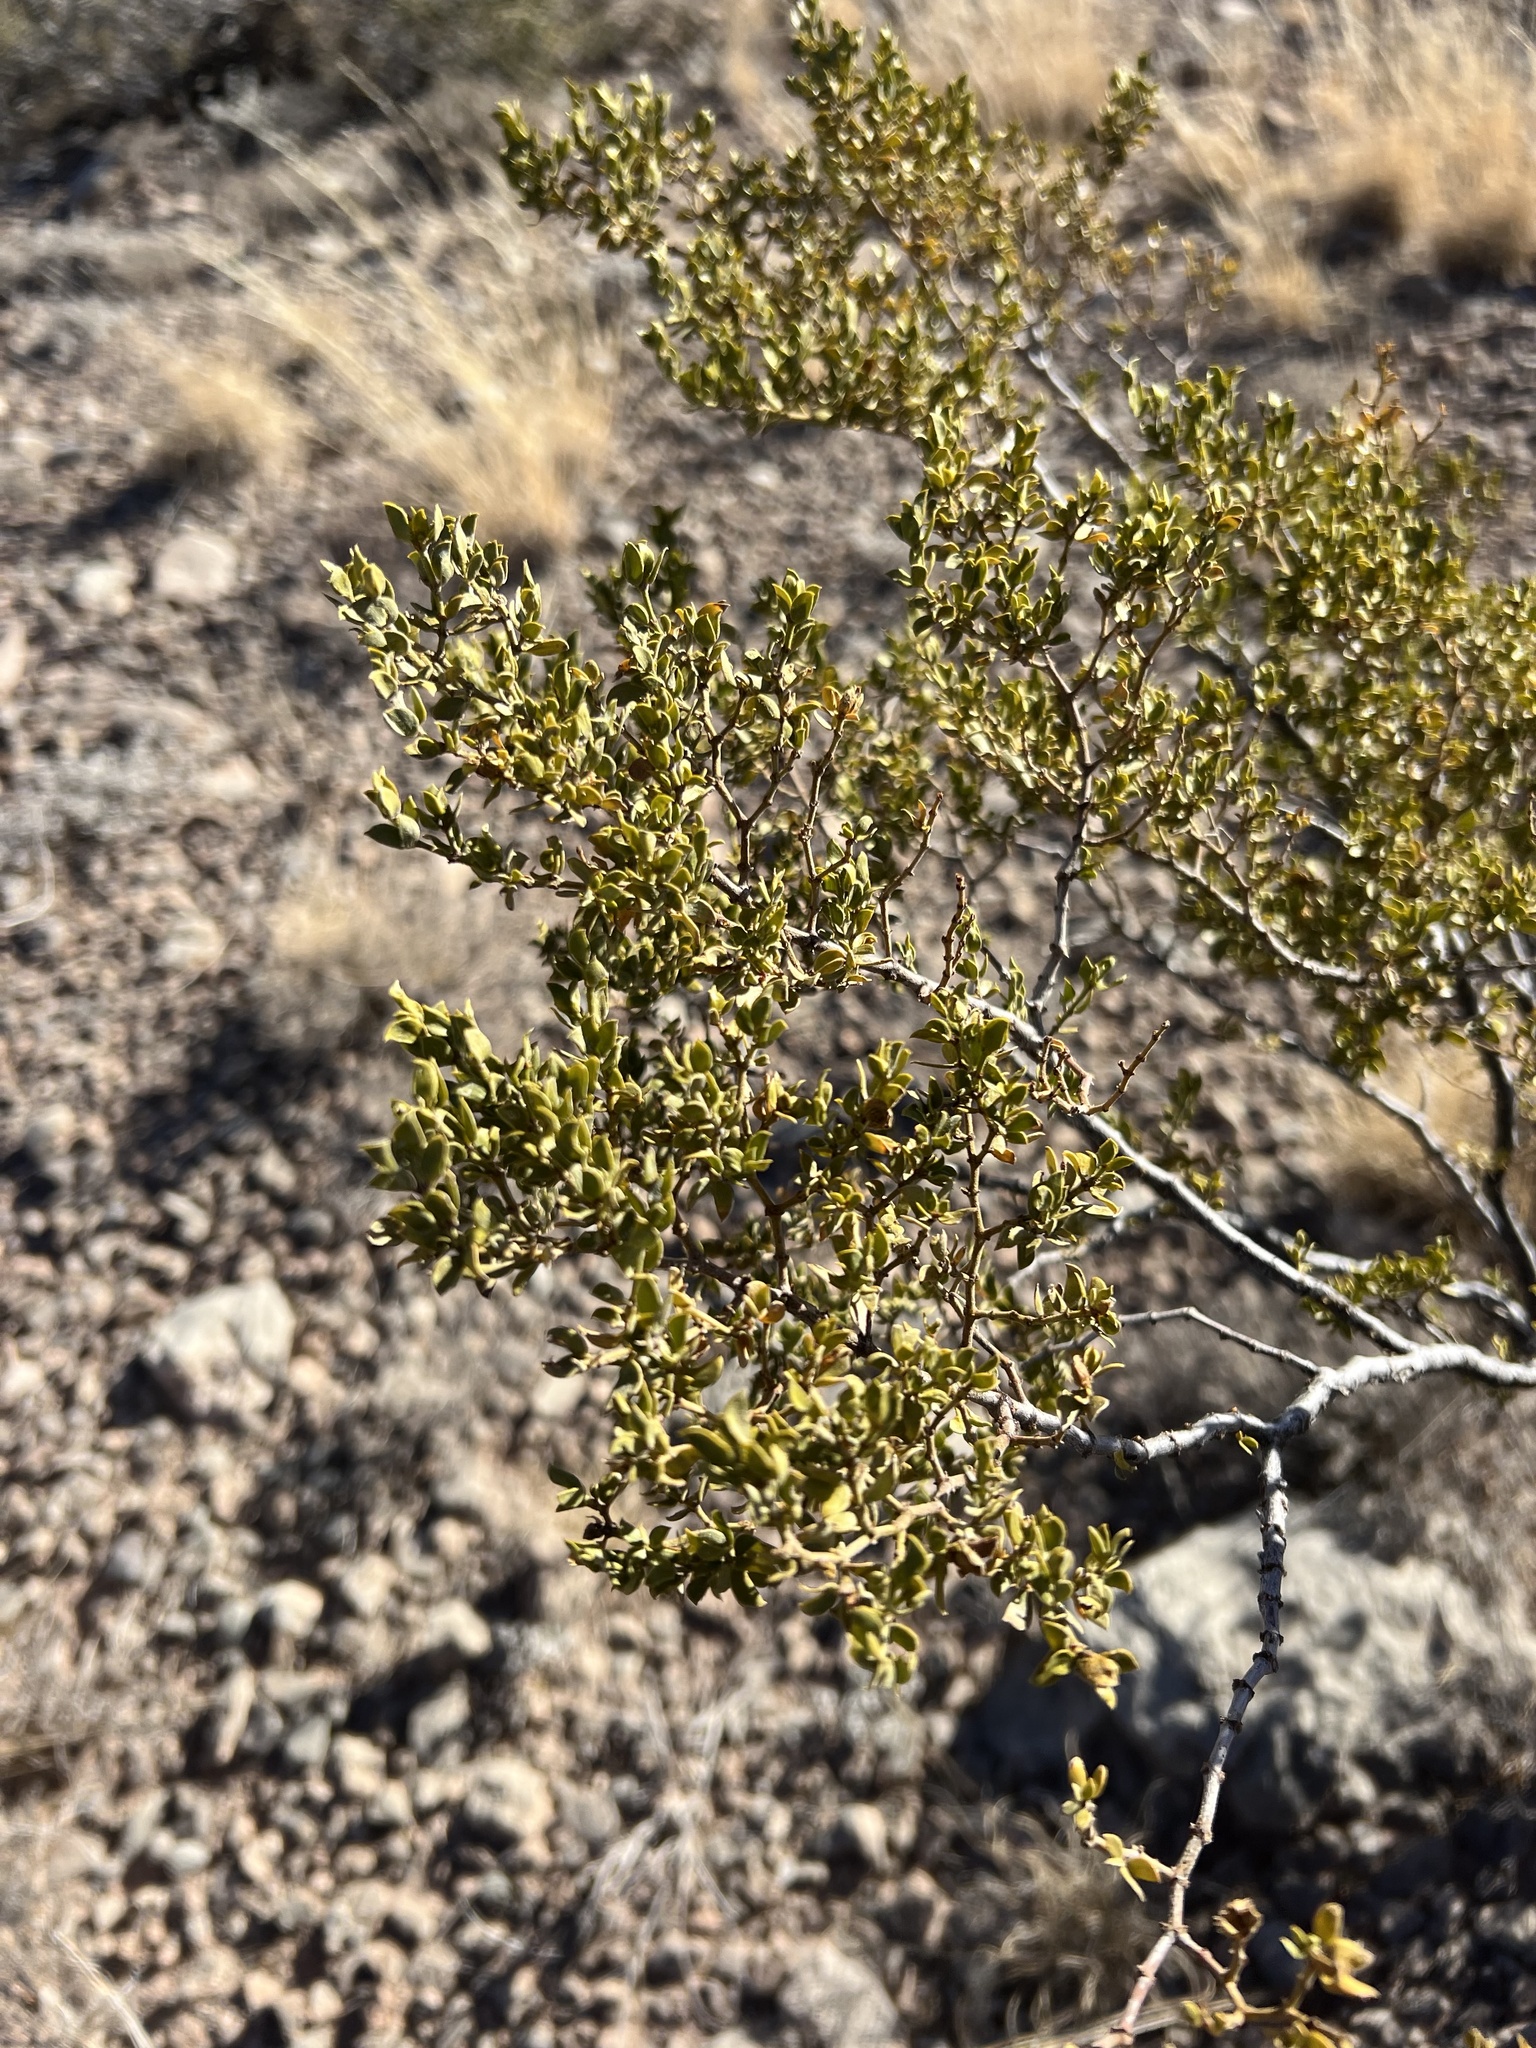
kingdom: Plantae
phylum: Tracheophyta
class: Magnoliopsida
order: Zygophyllales
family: Zygophyllaceae
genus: Larrea
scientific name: Larrea tridentata
